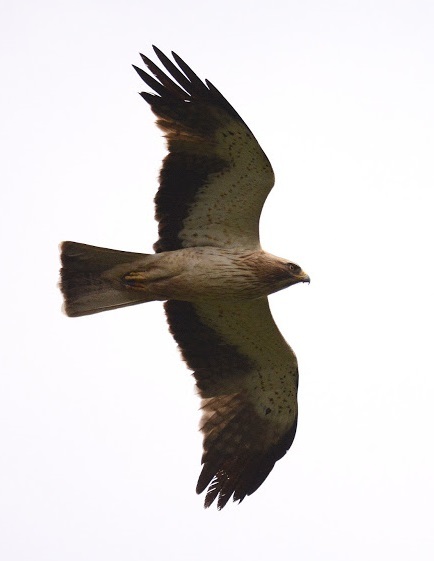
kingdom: Animalia
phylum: Chordata
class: Aves
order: Accipitriformes
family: Accipitridae
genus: Hieraaetus
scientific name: Hieraaetus pennatus
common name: Booted eagle
